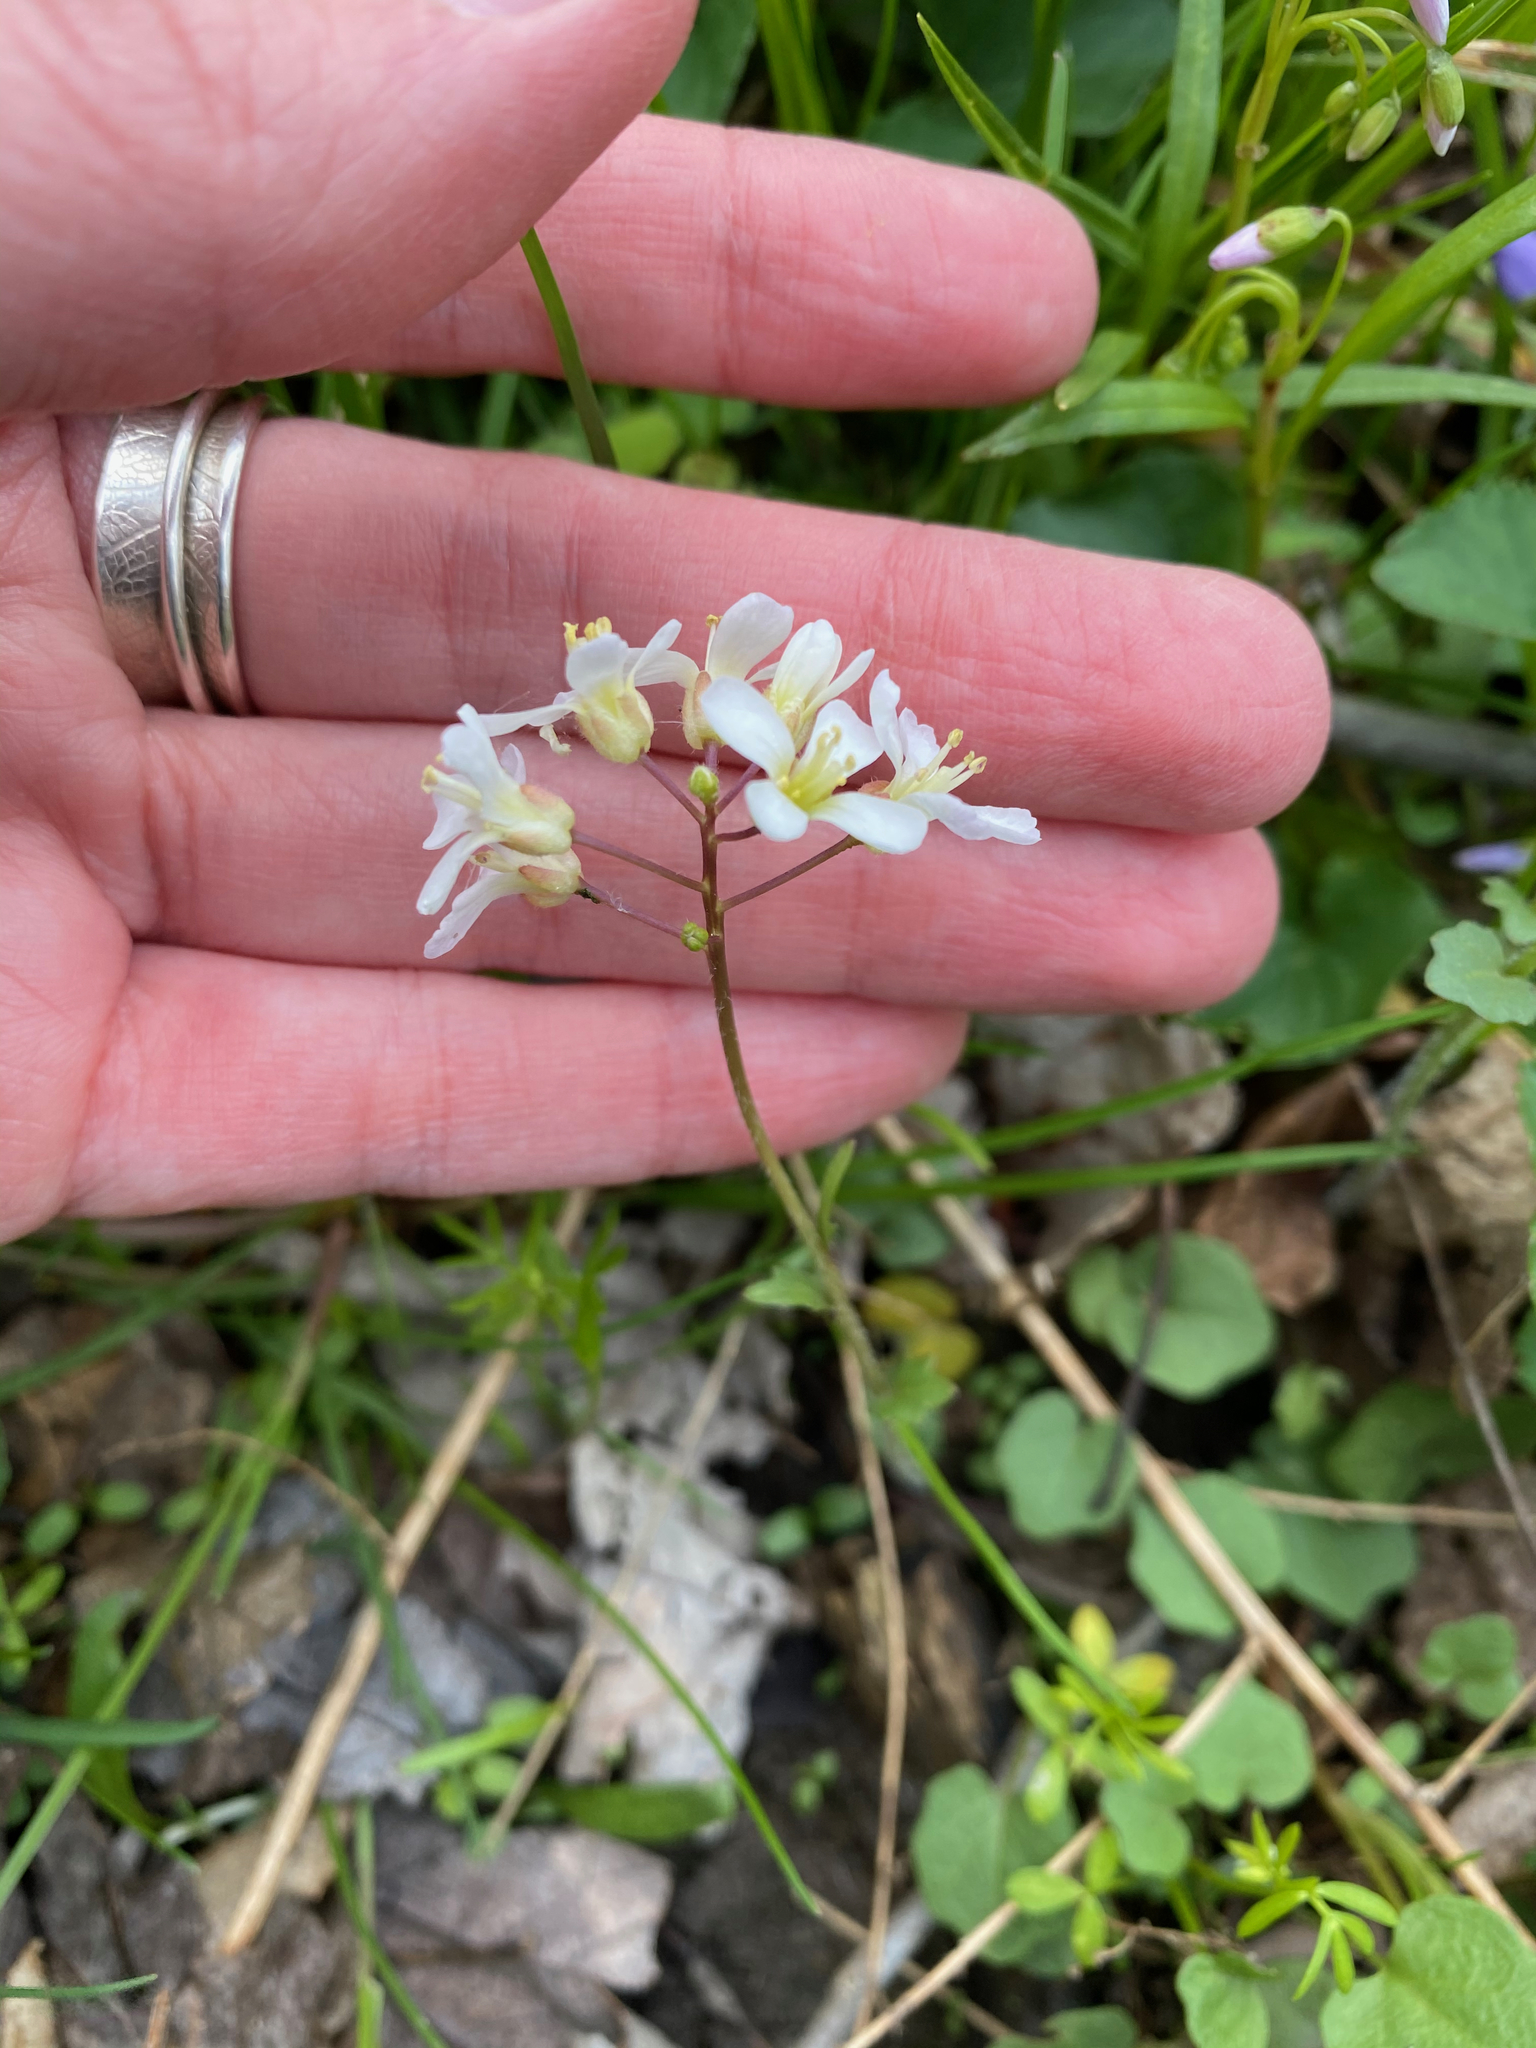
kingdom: Plantae
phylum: Tracheophyta
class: Magnoliopsida
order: Brassicales
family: Brassicaceae
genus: Cardamine
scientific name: Cardamine douglassii
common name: Purple cress
